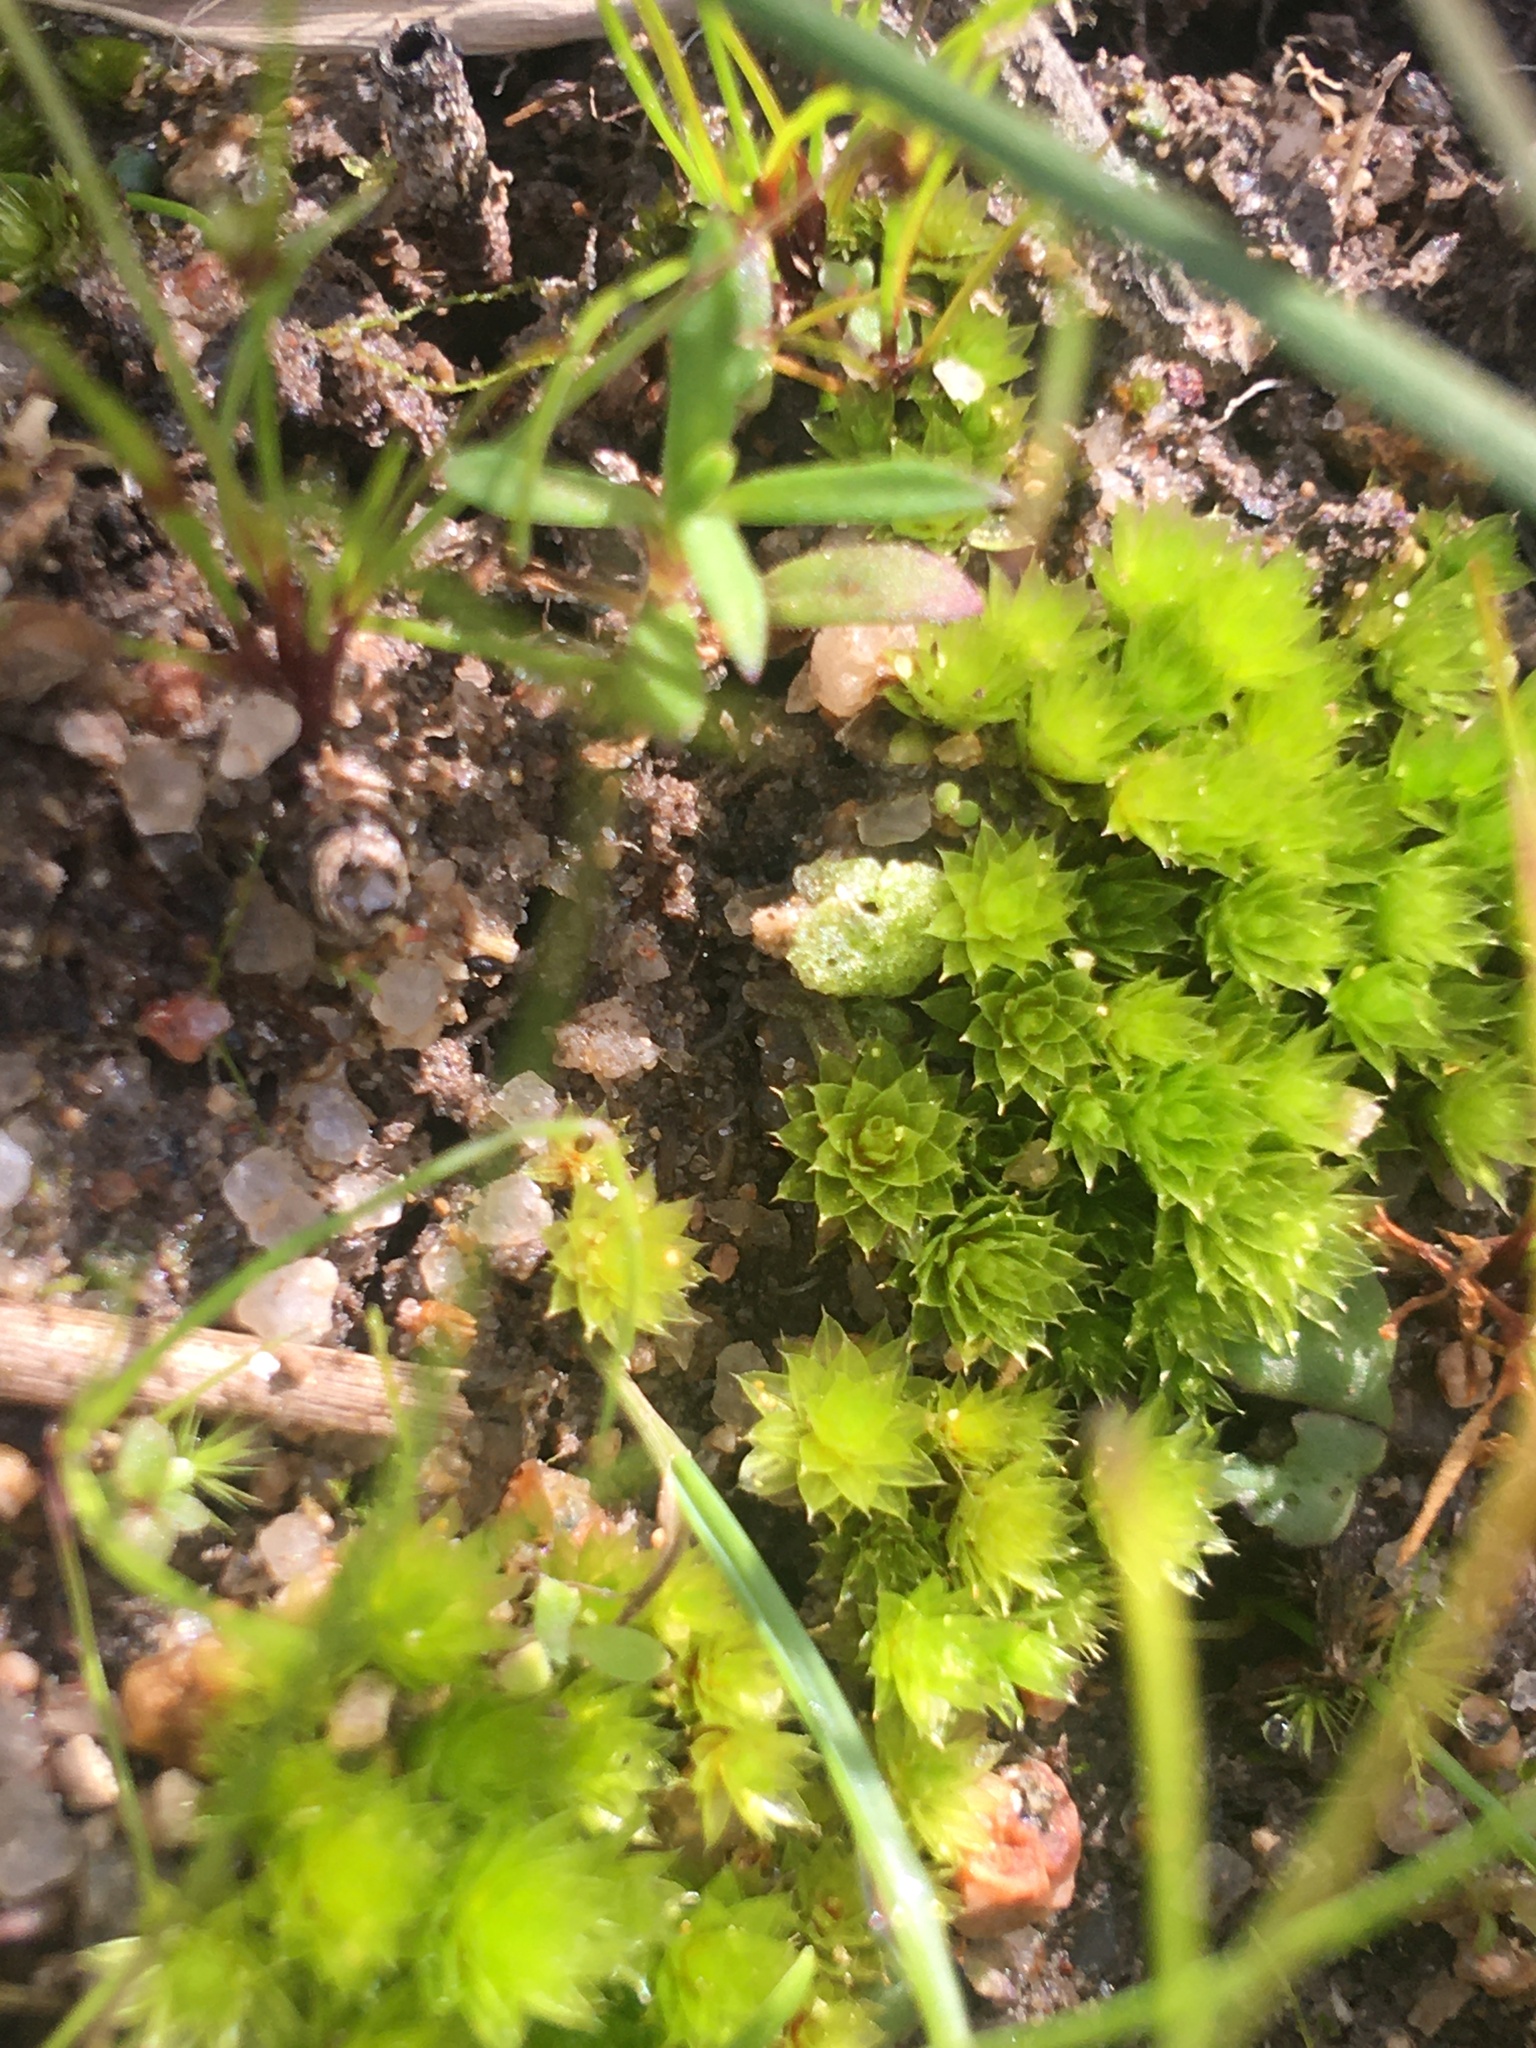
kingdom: Plantae
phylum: Bryophyta
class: Bryopsida
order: Bryales
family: Bryaceae
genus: Rosulabryum
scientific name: Rosulabryum canariense
